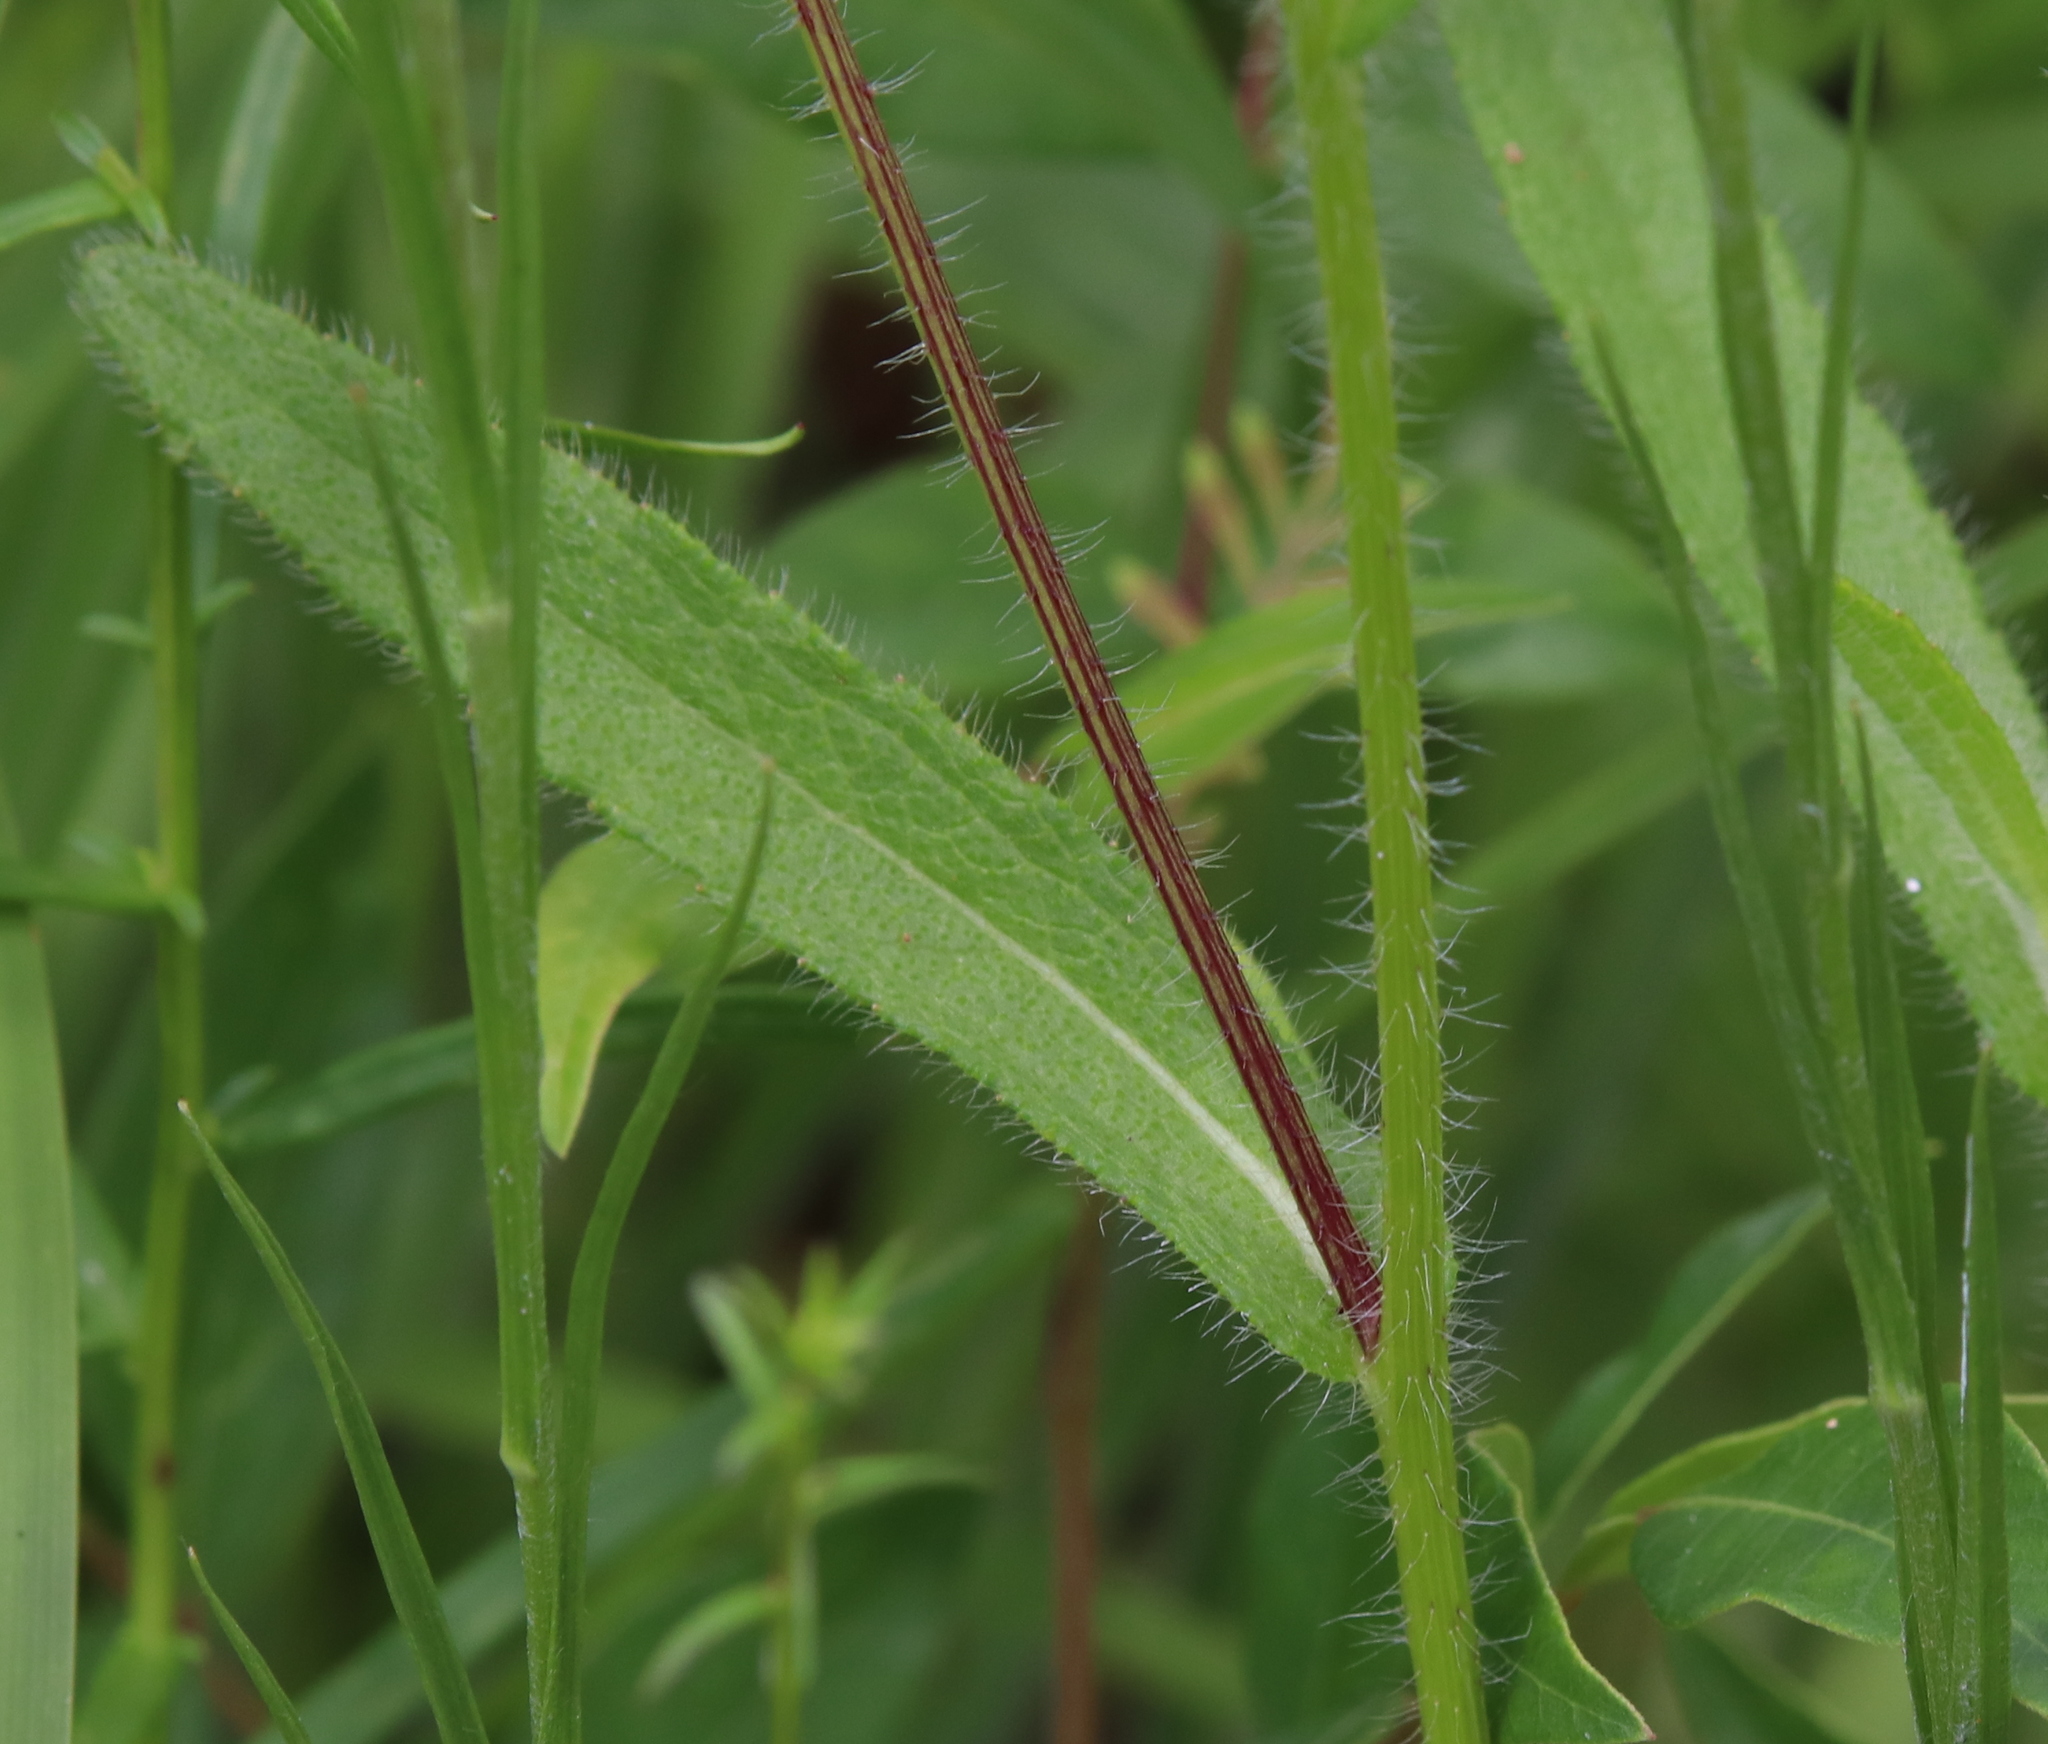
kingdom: Plantae
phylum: Tracheophyta
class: Magnoliopsida
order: Asterales
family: Asteraceae
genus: Rudbeckia
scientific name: Rudbeckia hirta
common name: Black-eyed-susan
